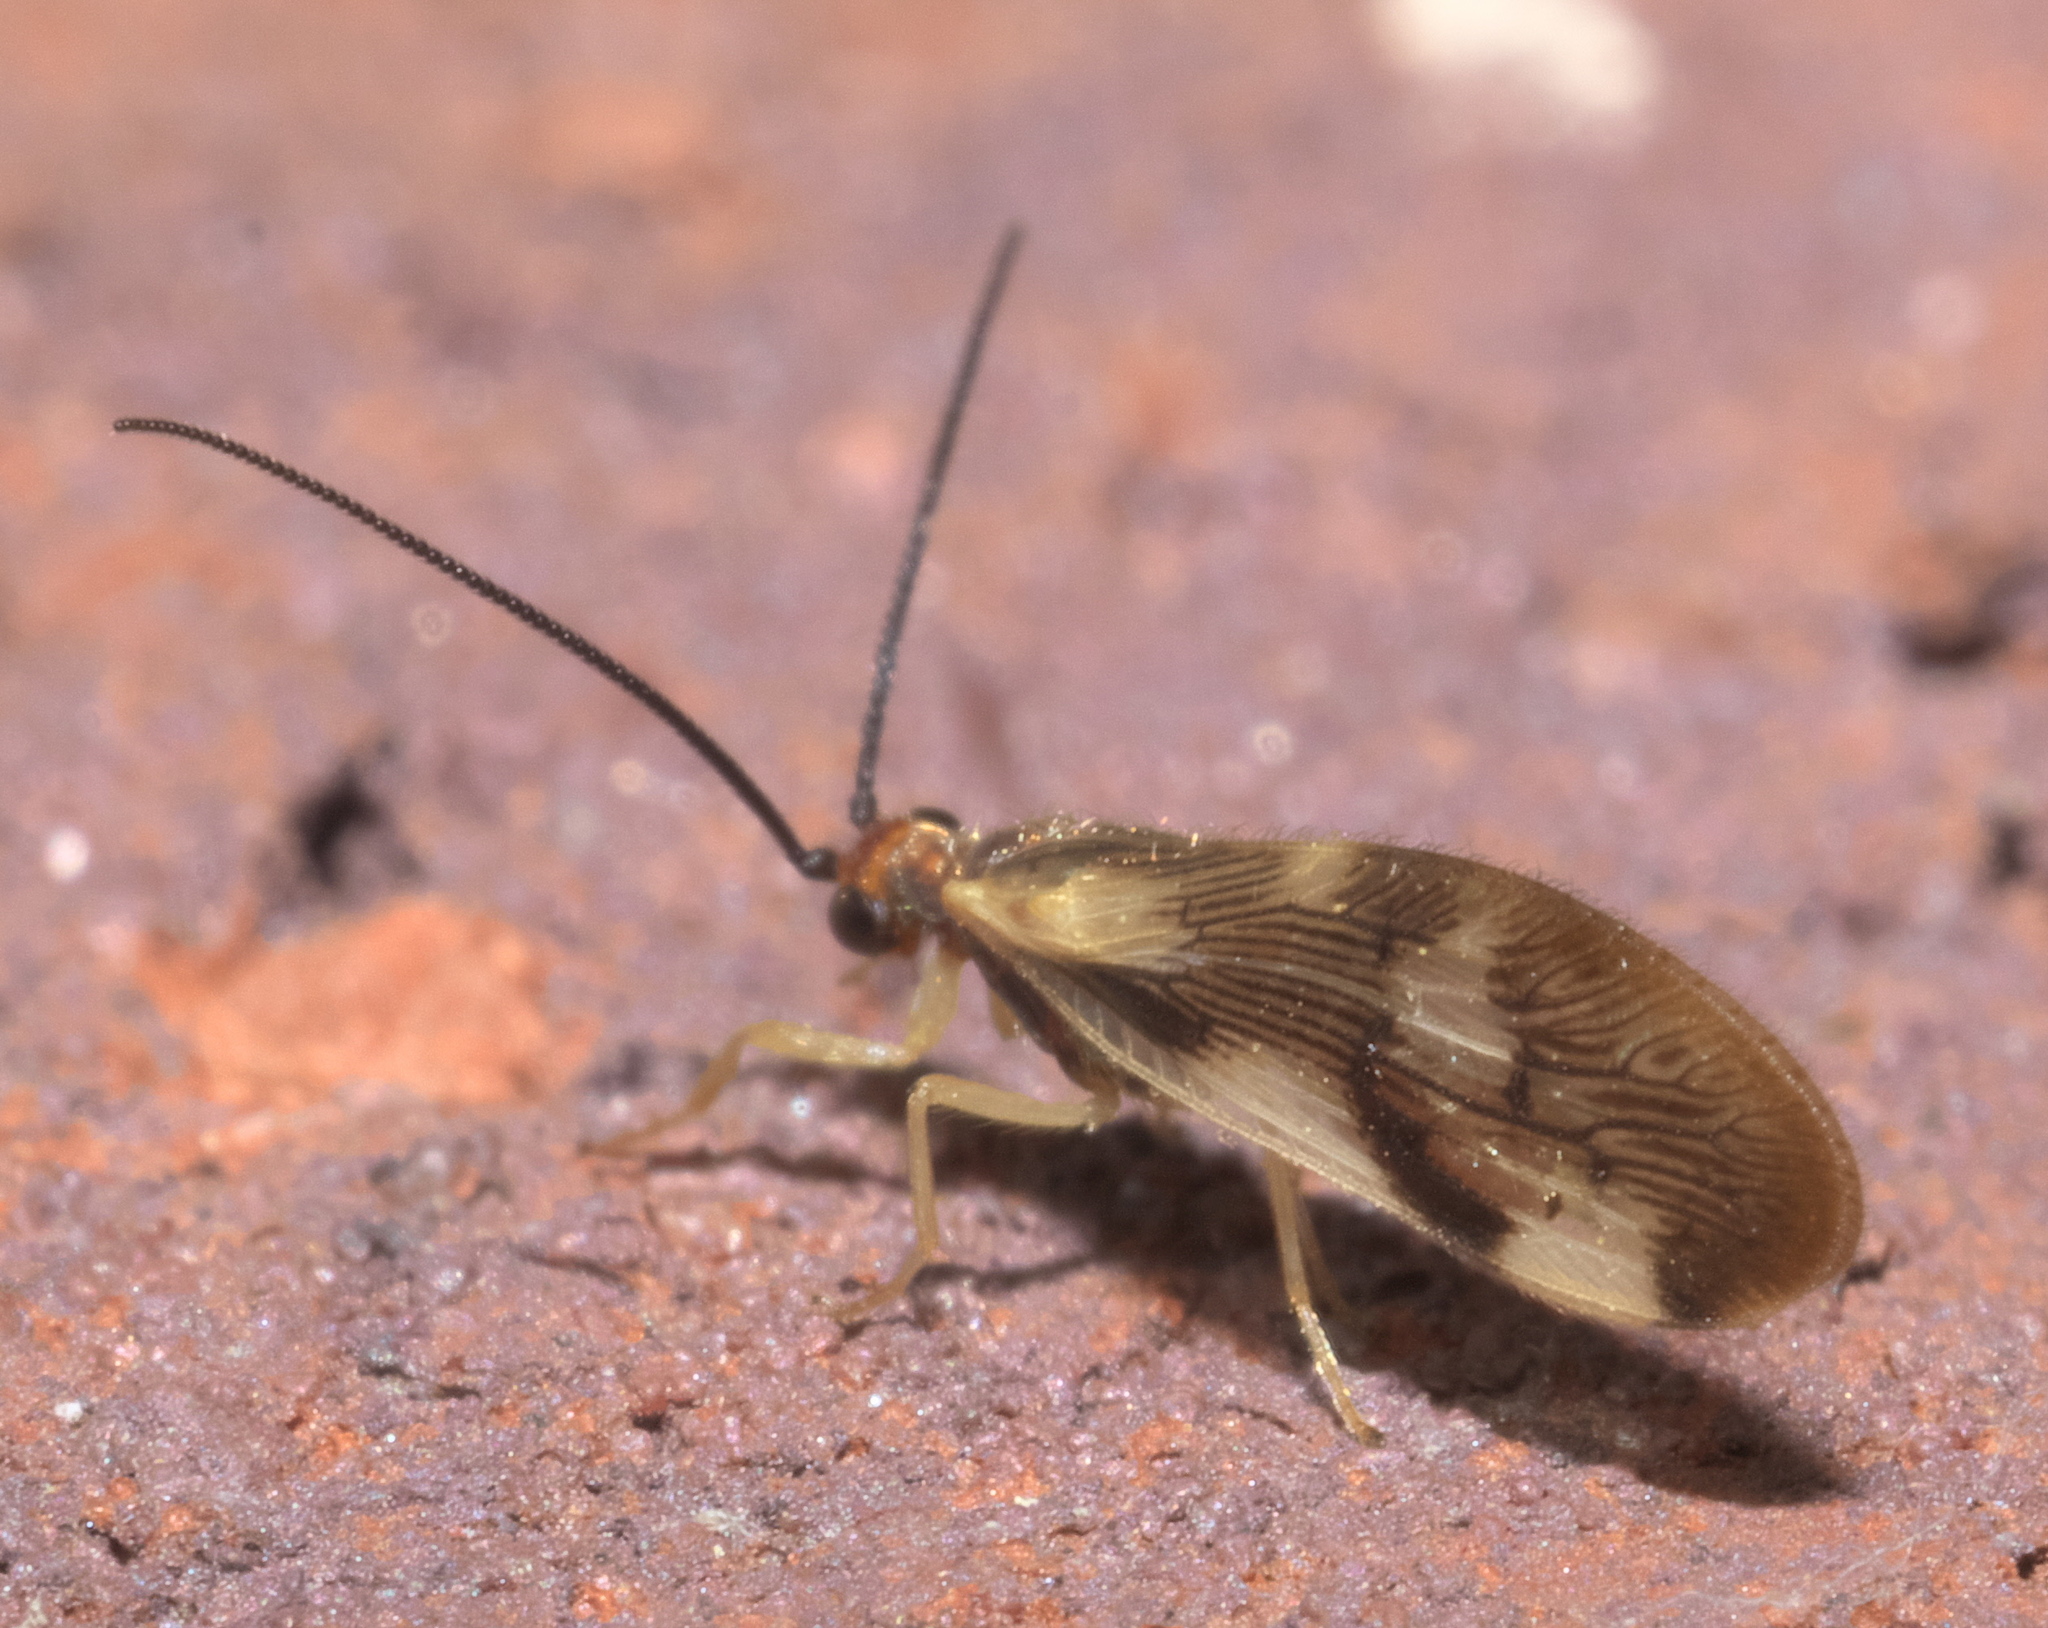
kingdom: Animalia
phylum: Arthropoda
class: Insecta
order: Neuroptera
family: Sisyridae
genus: Climacia
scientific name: Climacia areolaris
